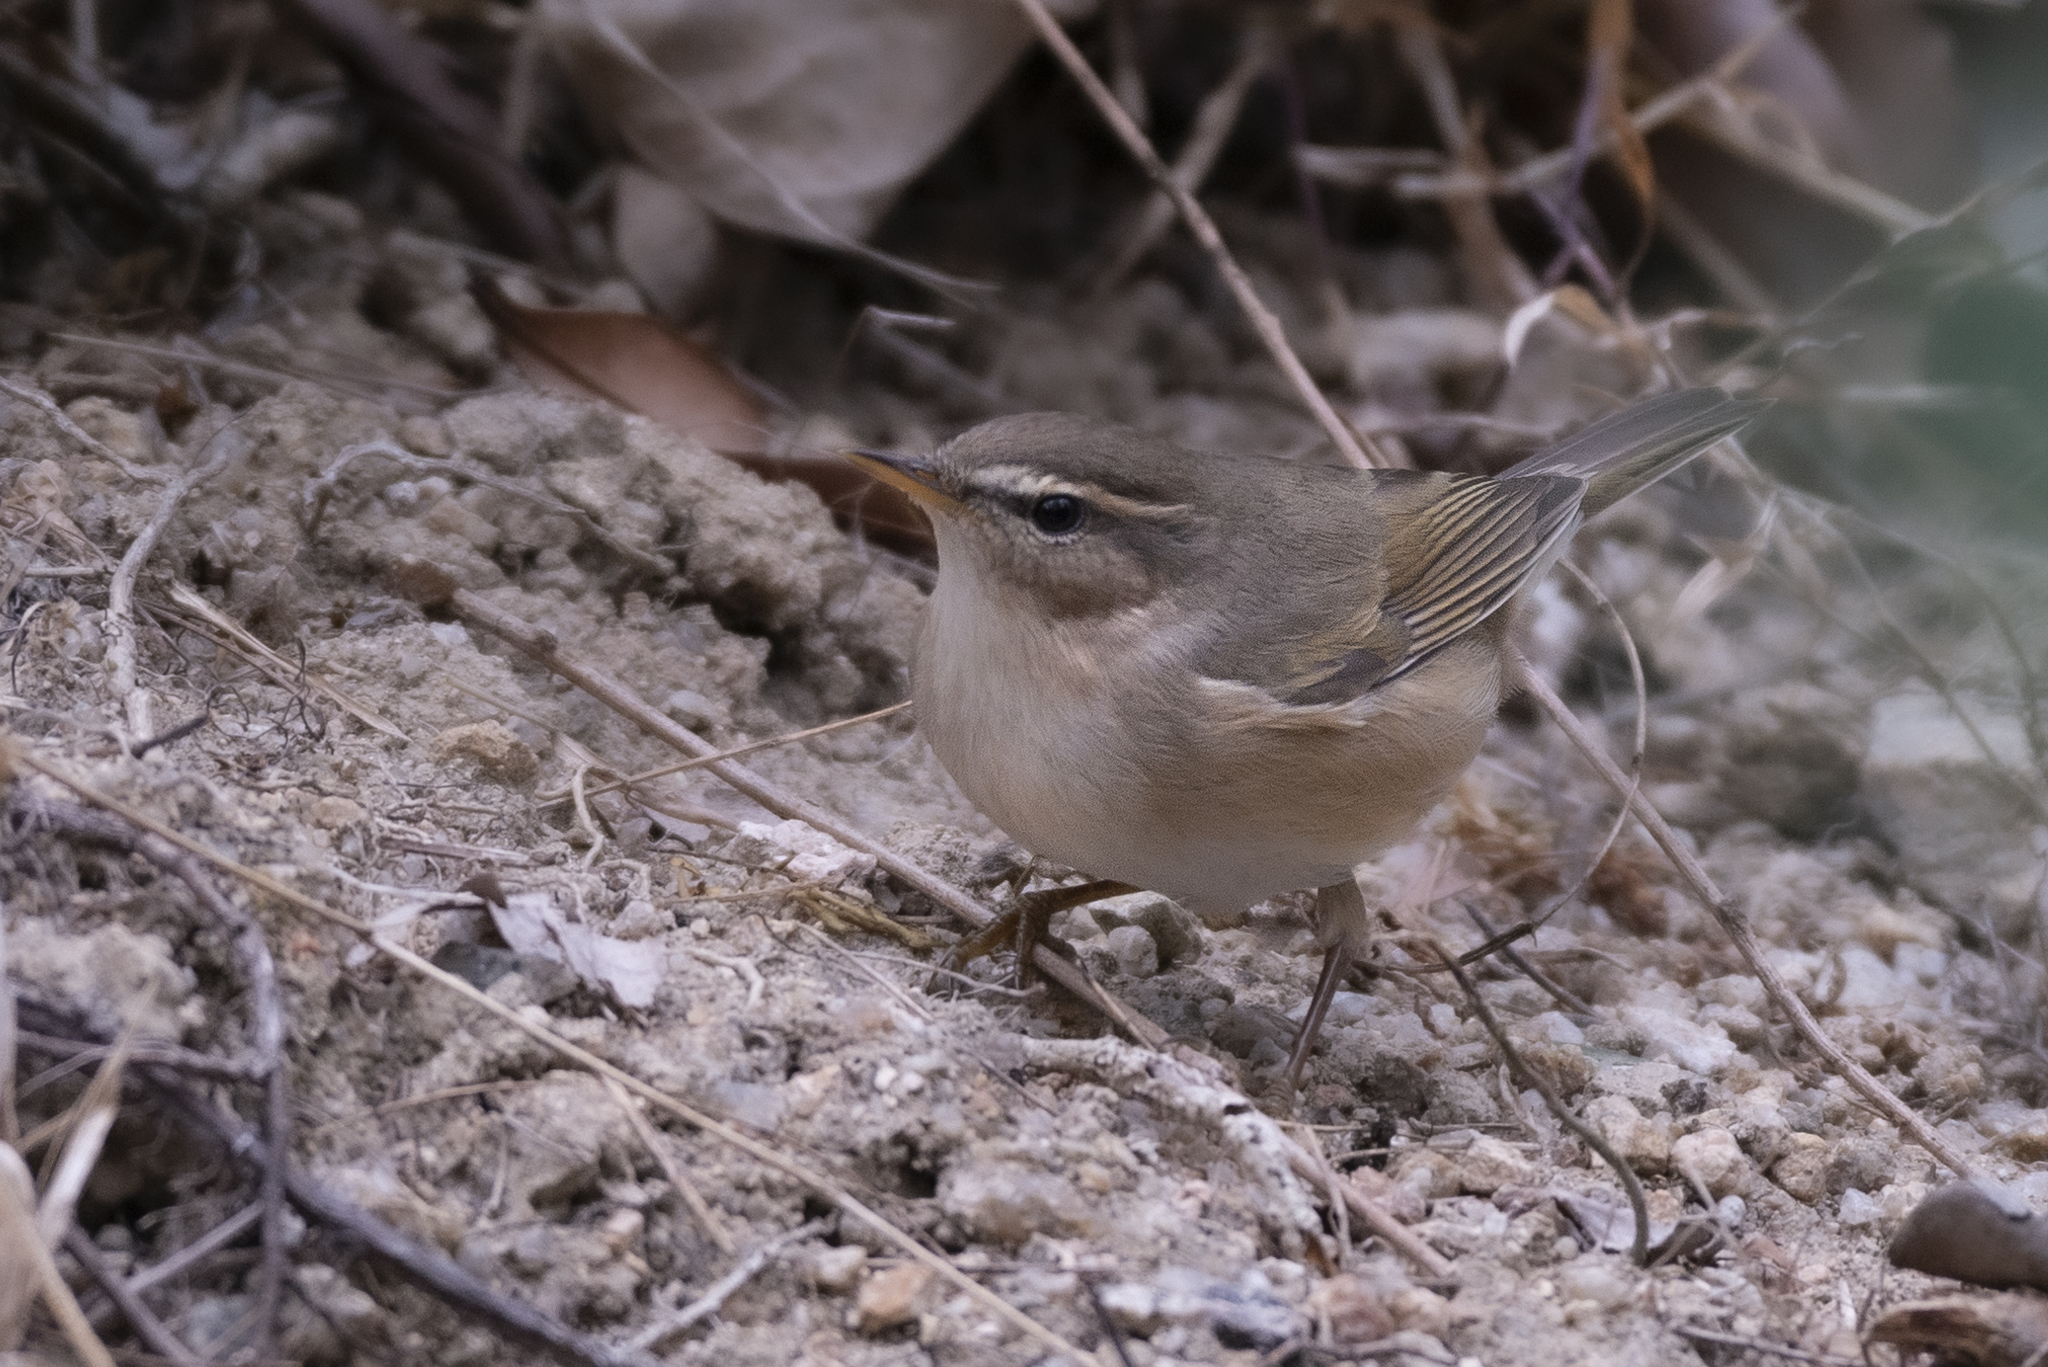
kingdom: Animalia
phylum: Chordata
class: Aves
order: Passeriformes
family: Phylloscopidae
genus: Phylloscopus
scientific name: Phylloscopus fuscatus
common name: Dusky warbler
